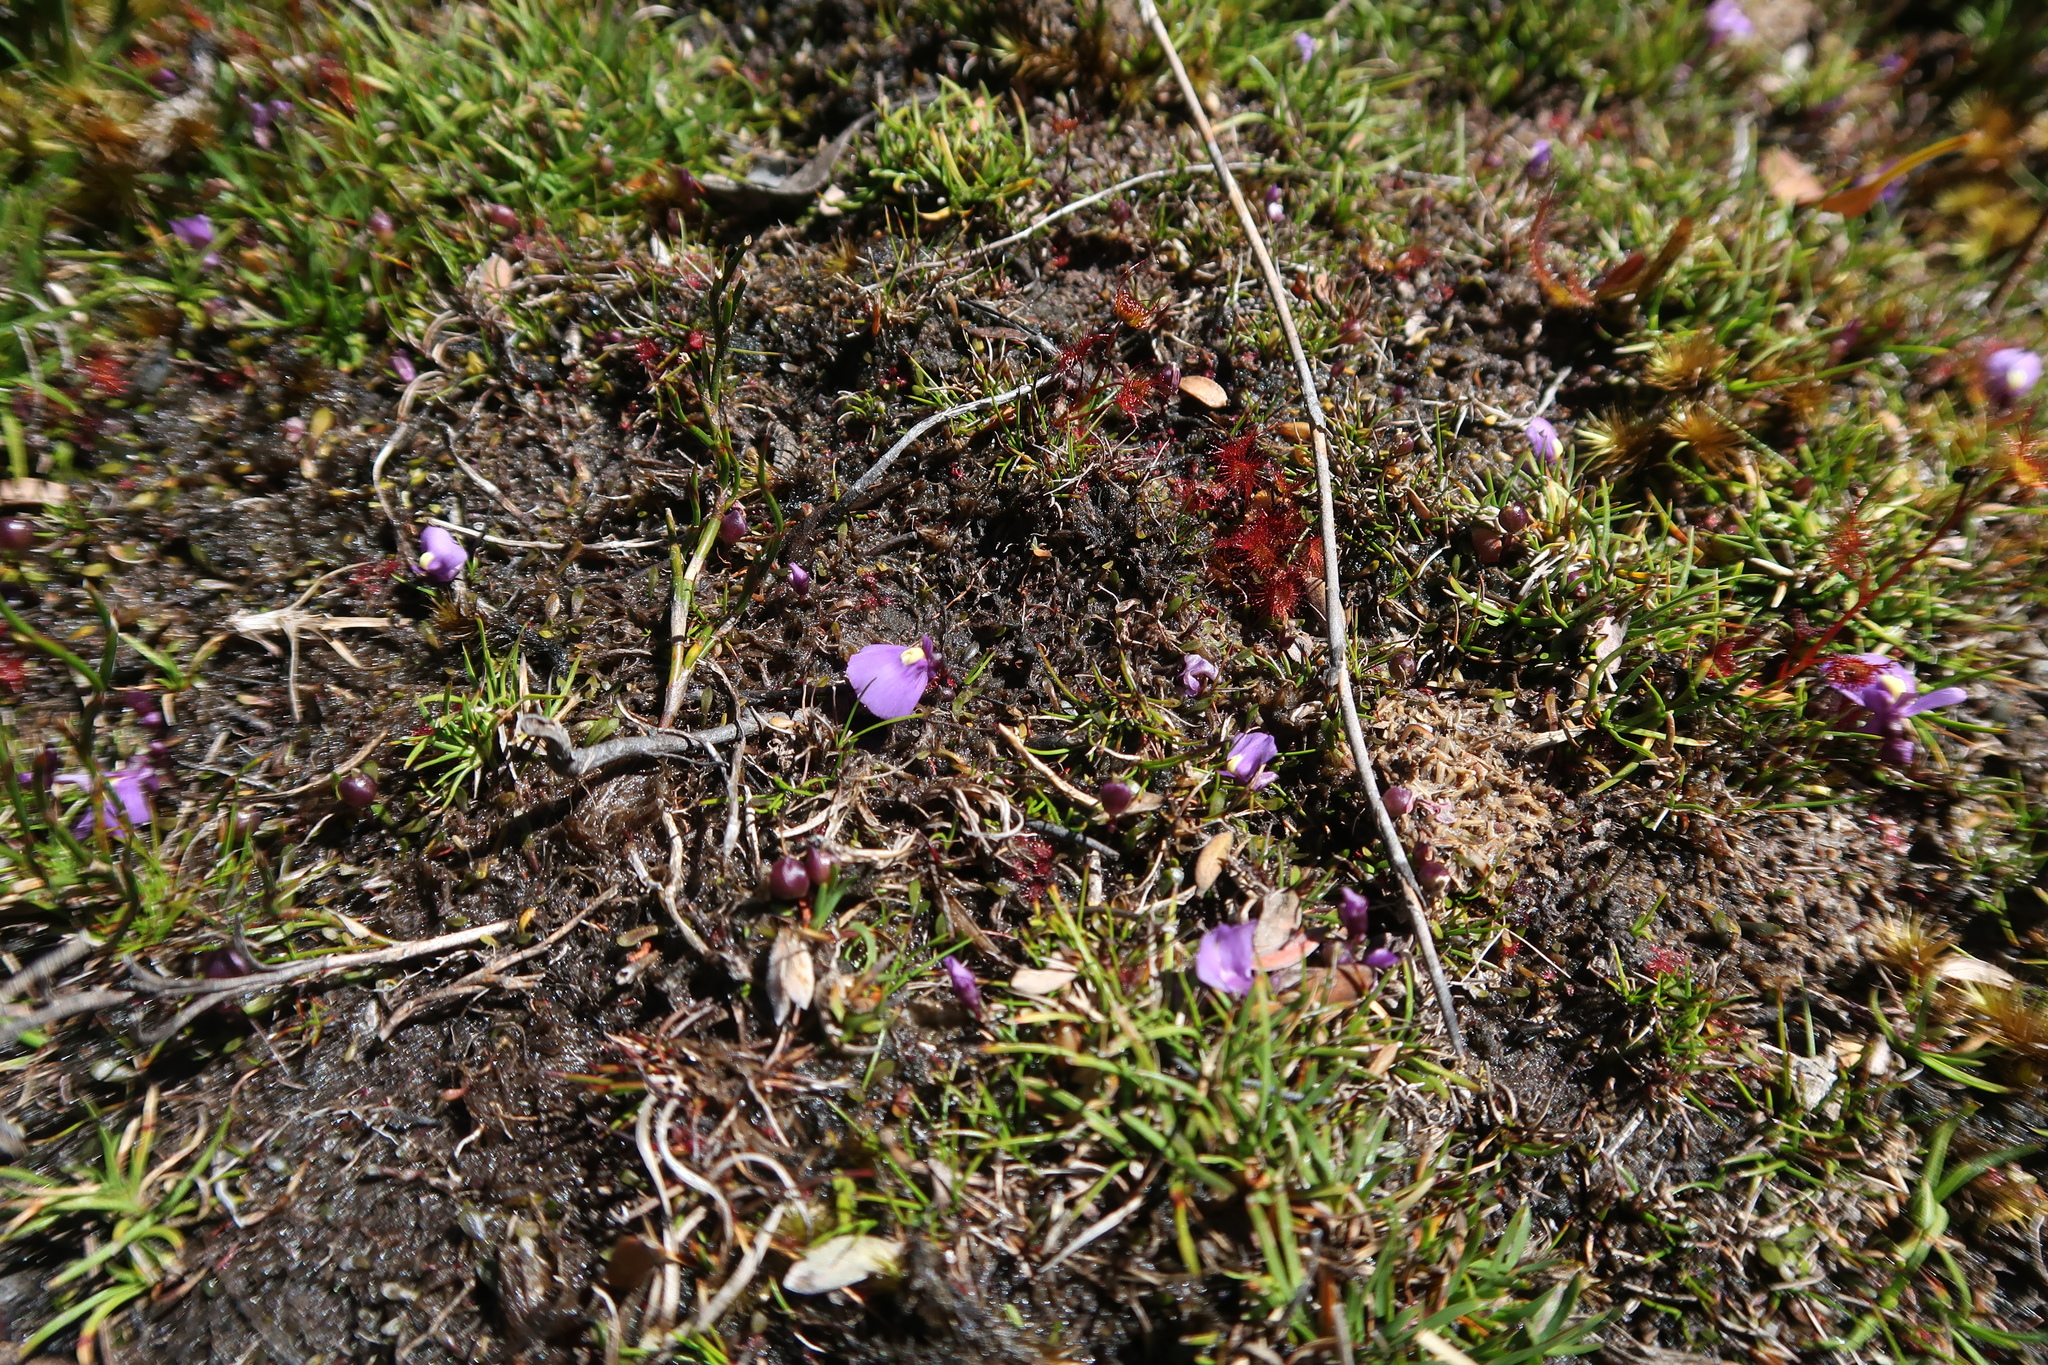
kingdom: Plantae
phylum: Tracheophyta
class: Magnoliopsida
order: Lamiales
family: Lentibulariaceae
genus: Utricularia
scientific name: Utricularia dichotoma
